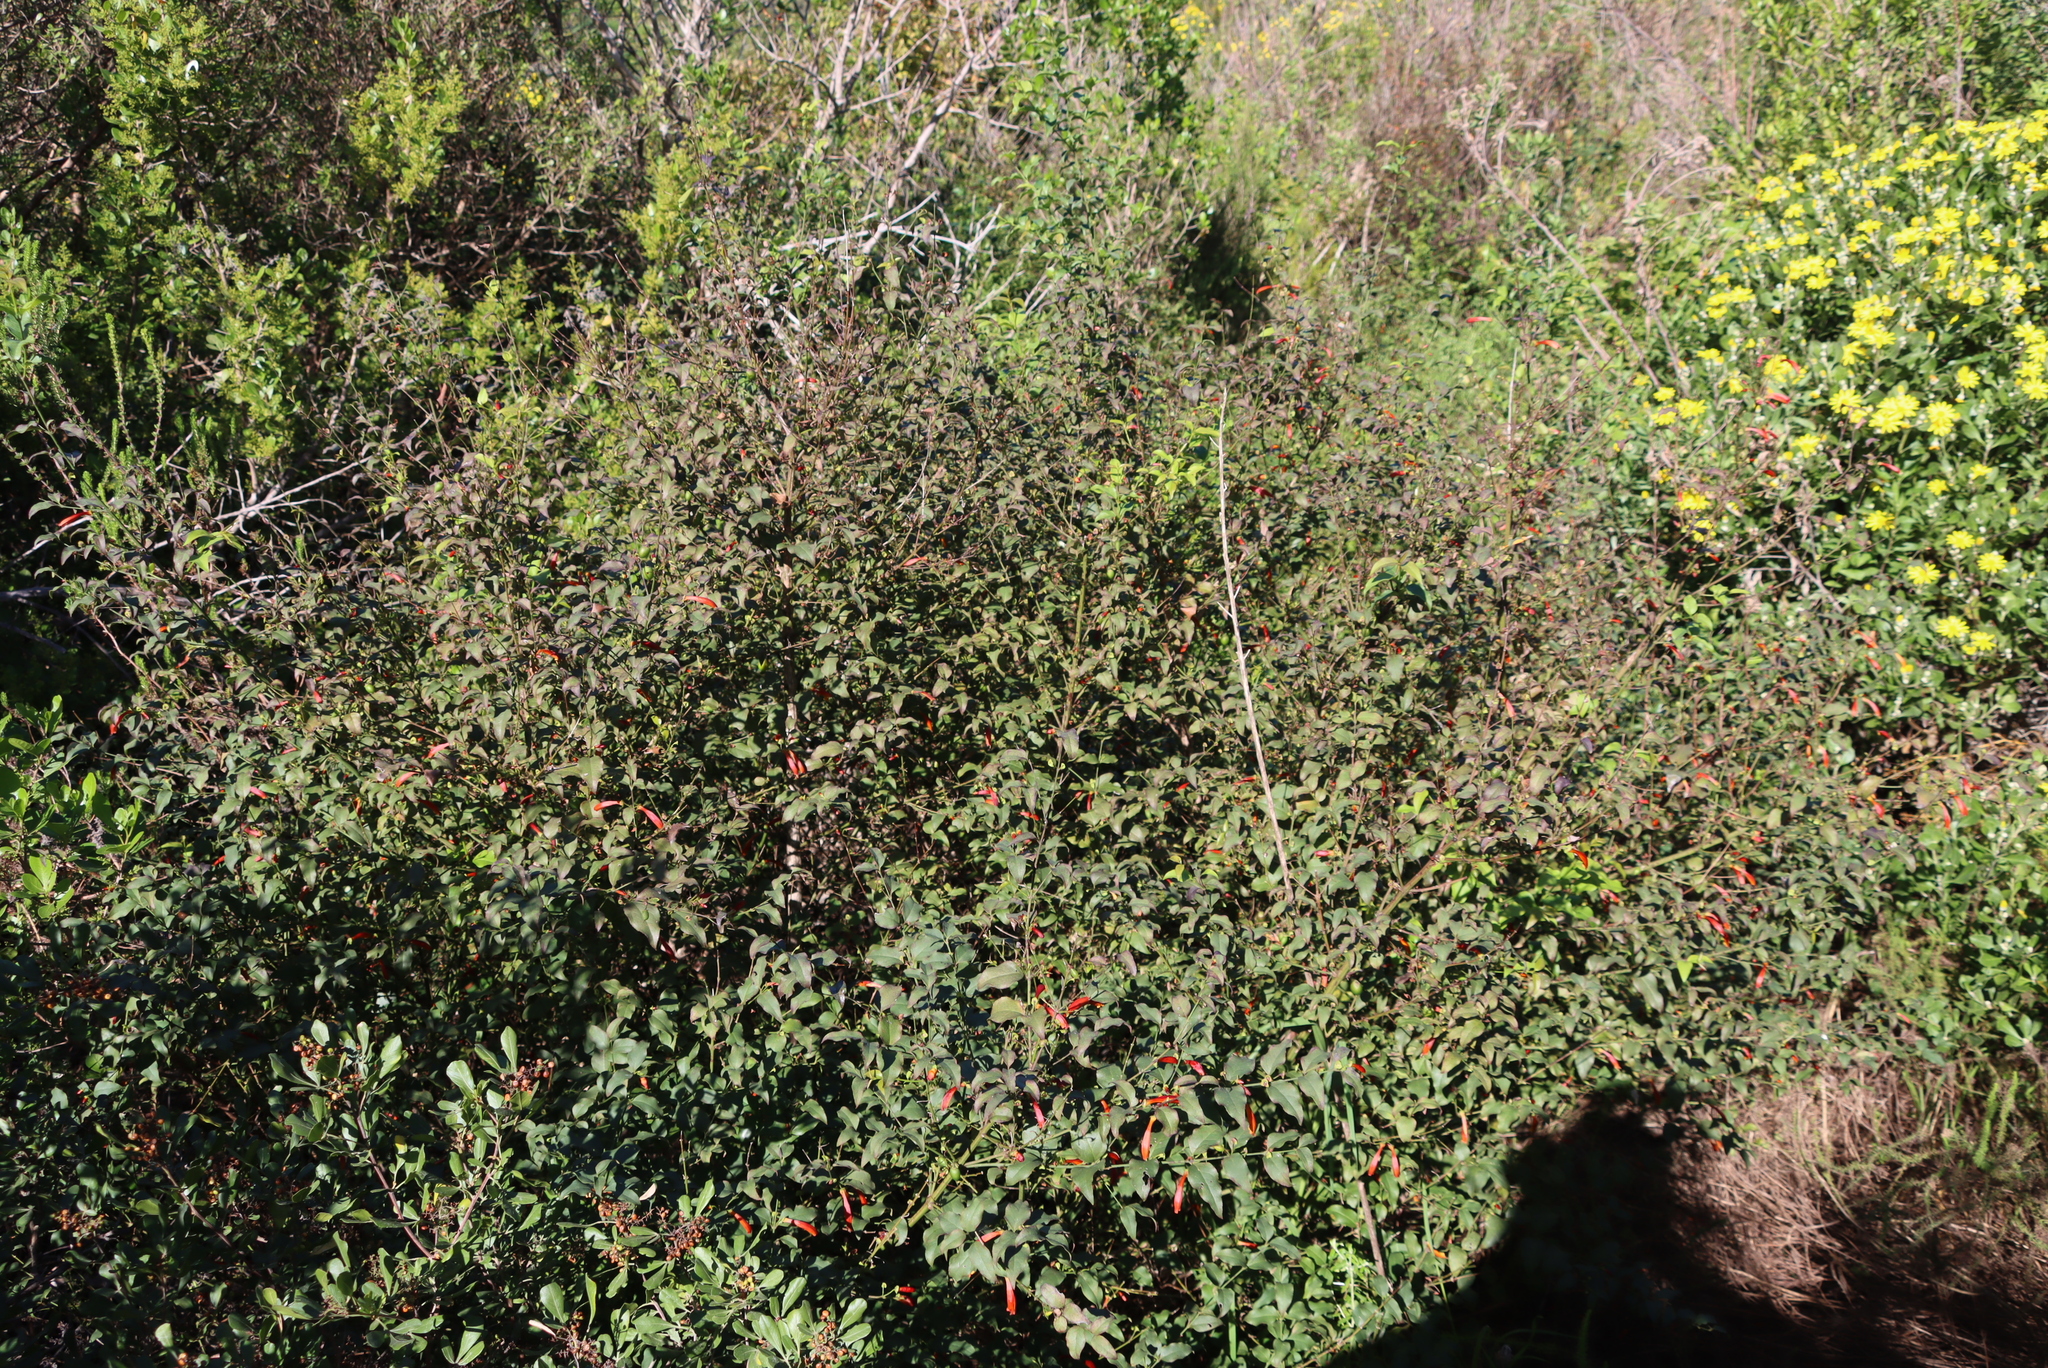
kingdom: Plantae
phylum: Tracheophyta
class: Magnoliopsida
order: Lamiales
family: Stilbaceae
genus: Halleria
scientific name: Halleria lucida
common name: Tree fuschia
